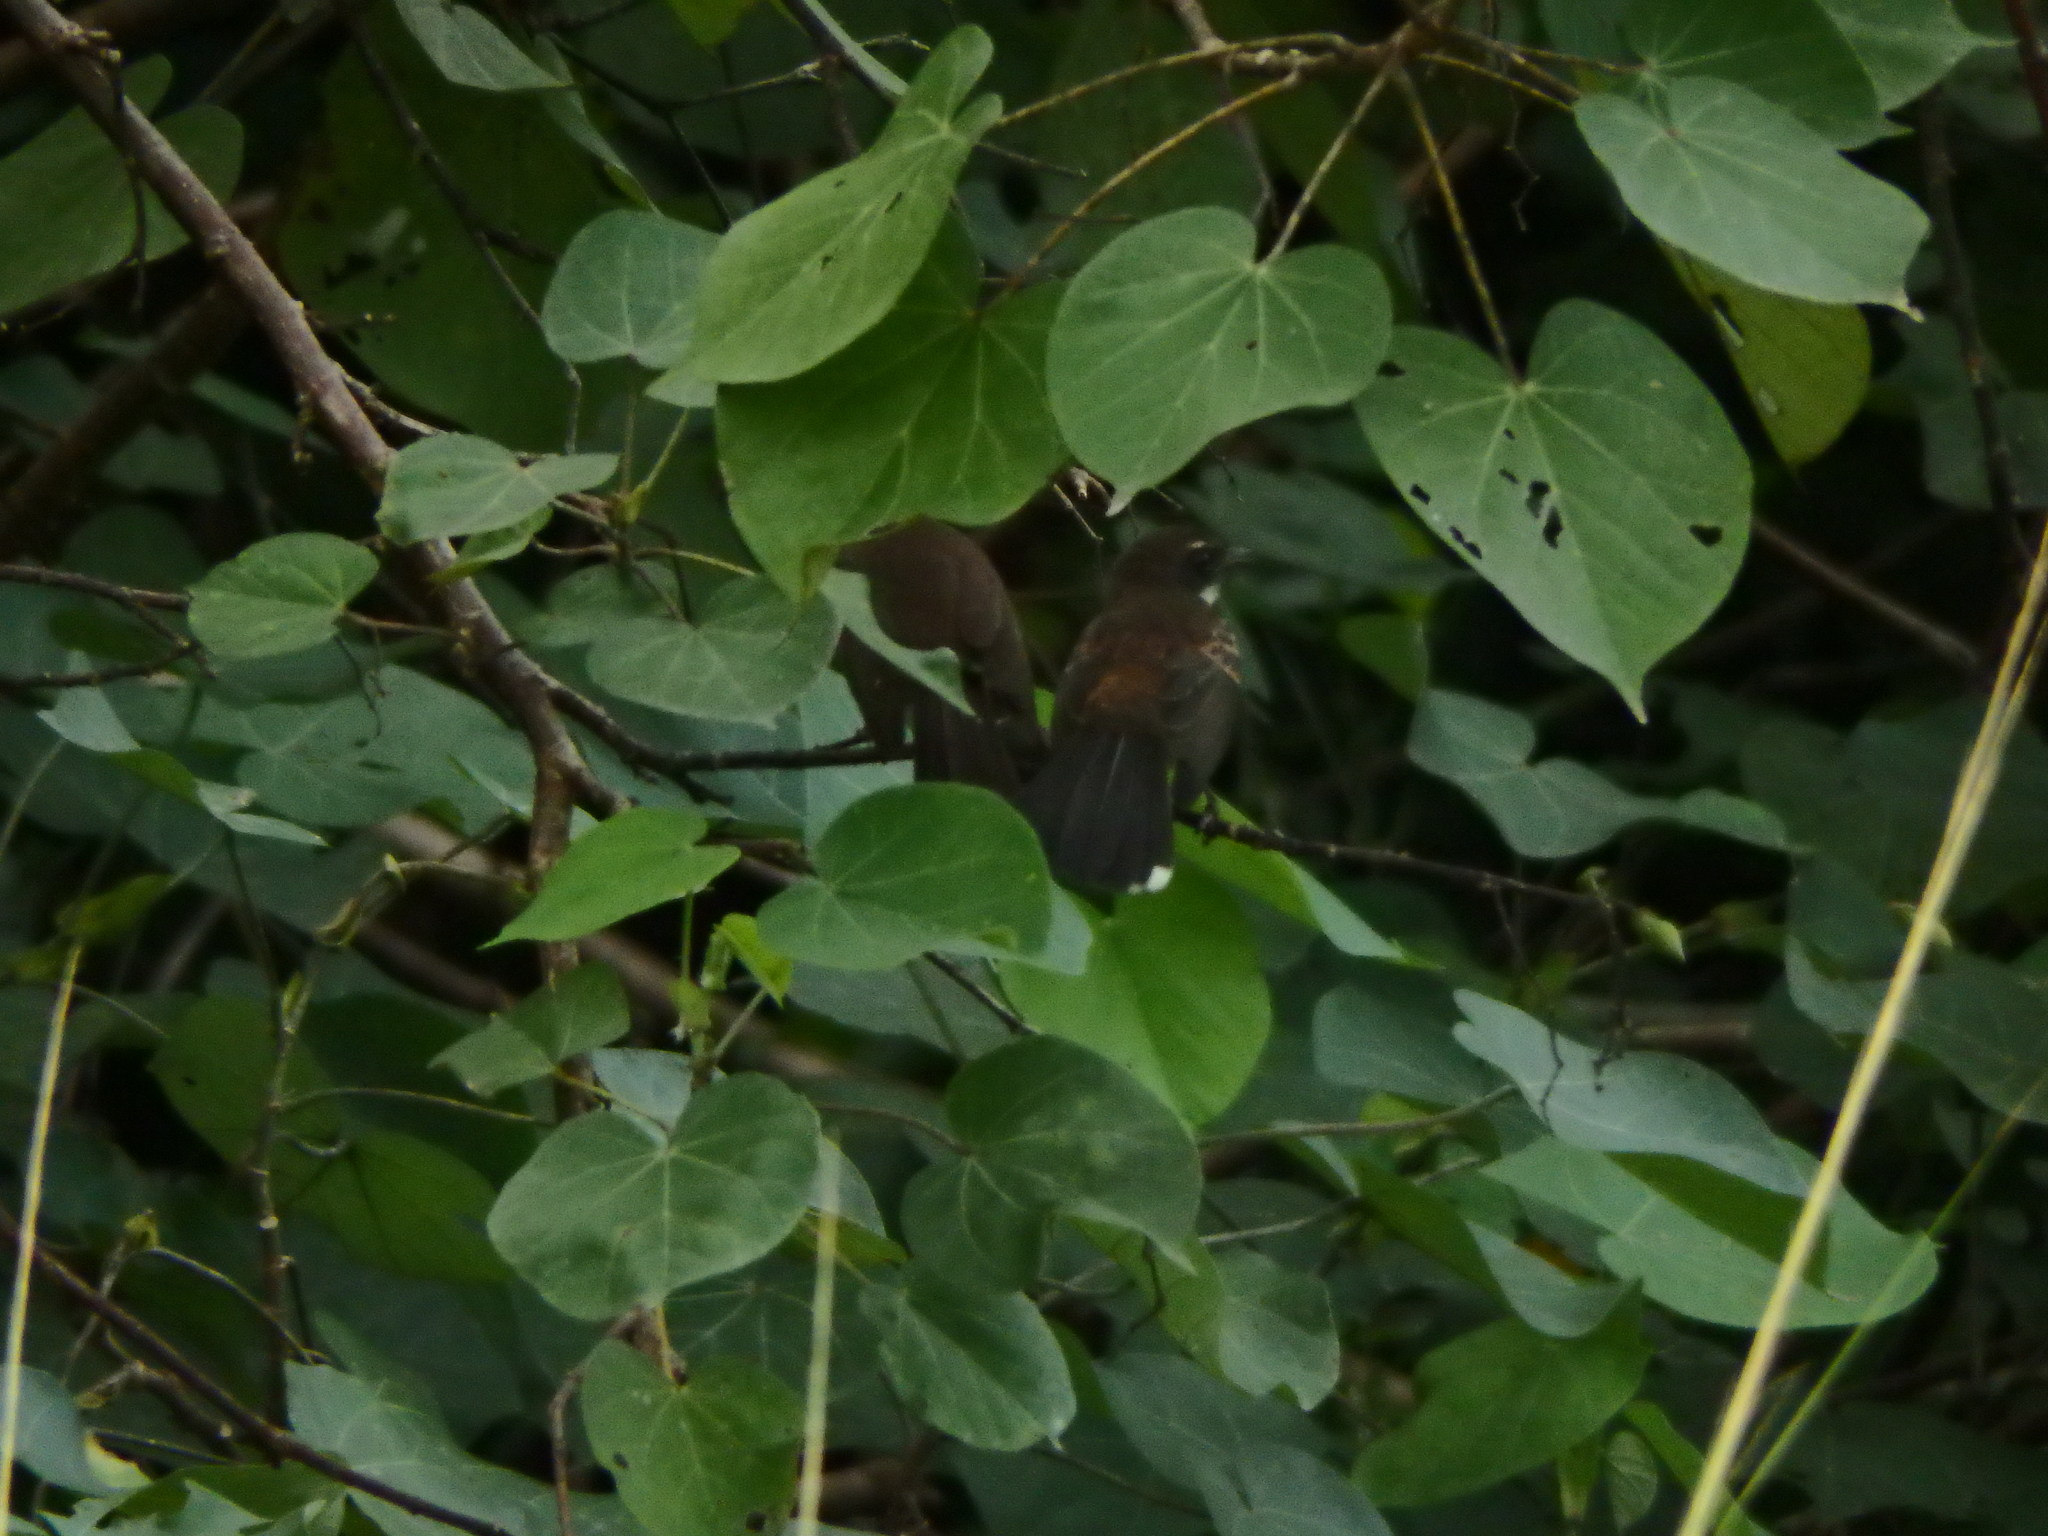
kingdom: Animalia
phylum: Chordata
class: Aves
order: Passeriformes
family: Rhipiduridae
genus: Rhipidura
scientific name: Rhipidura javanica
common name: Pied fantail
